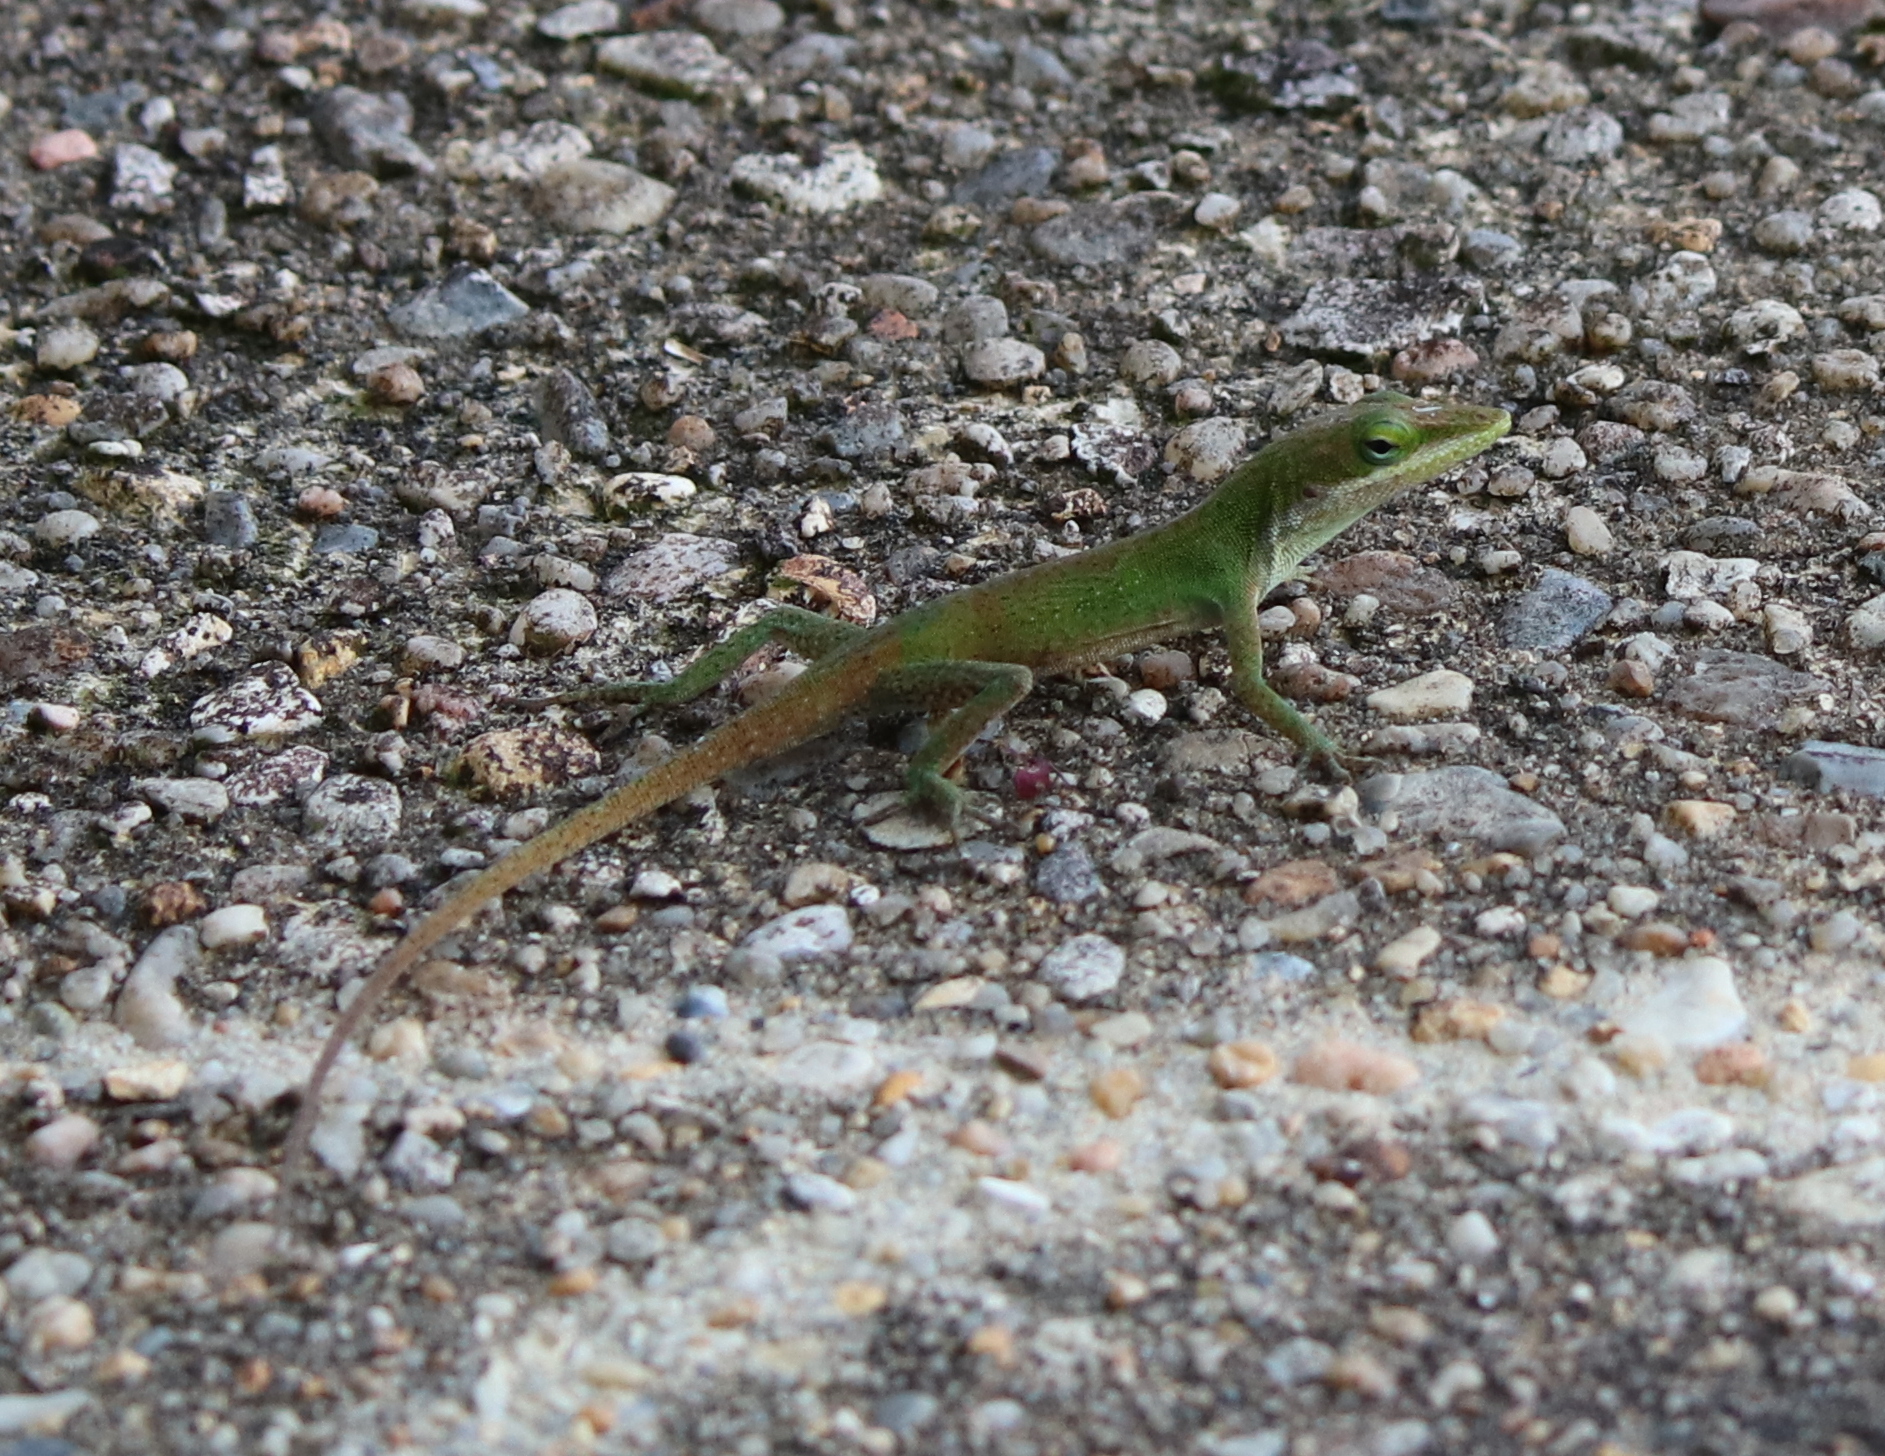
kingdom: Animalia
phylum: Chordata
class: Squamata
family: Dactyloidae
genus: Anolis
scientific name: Anolis carolinensis
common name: Green anole
